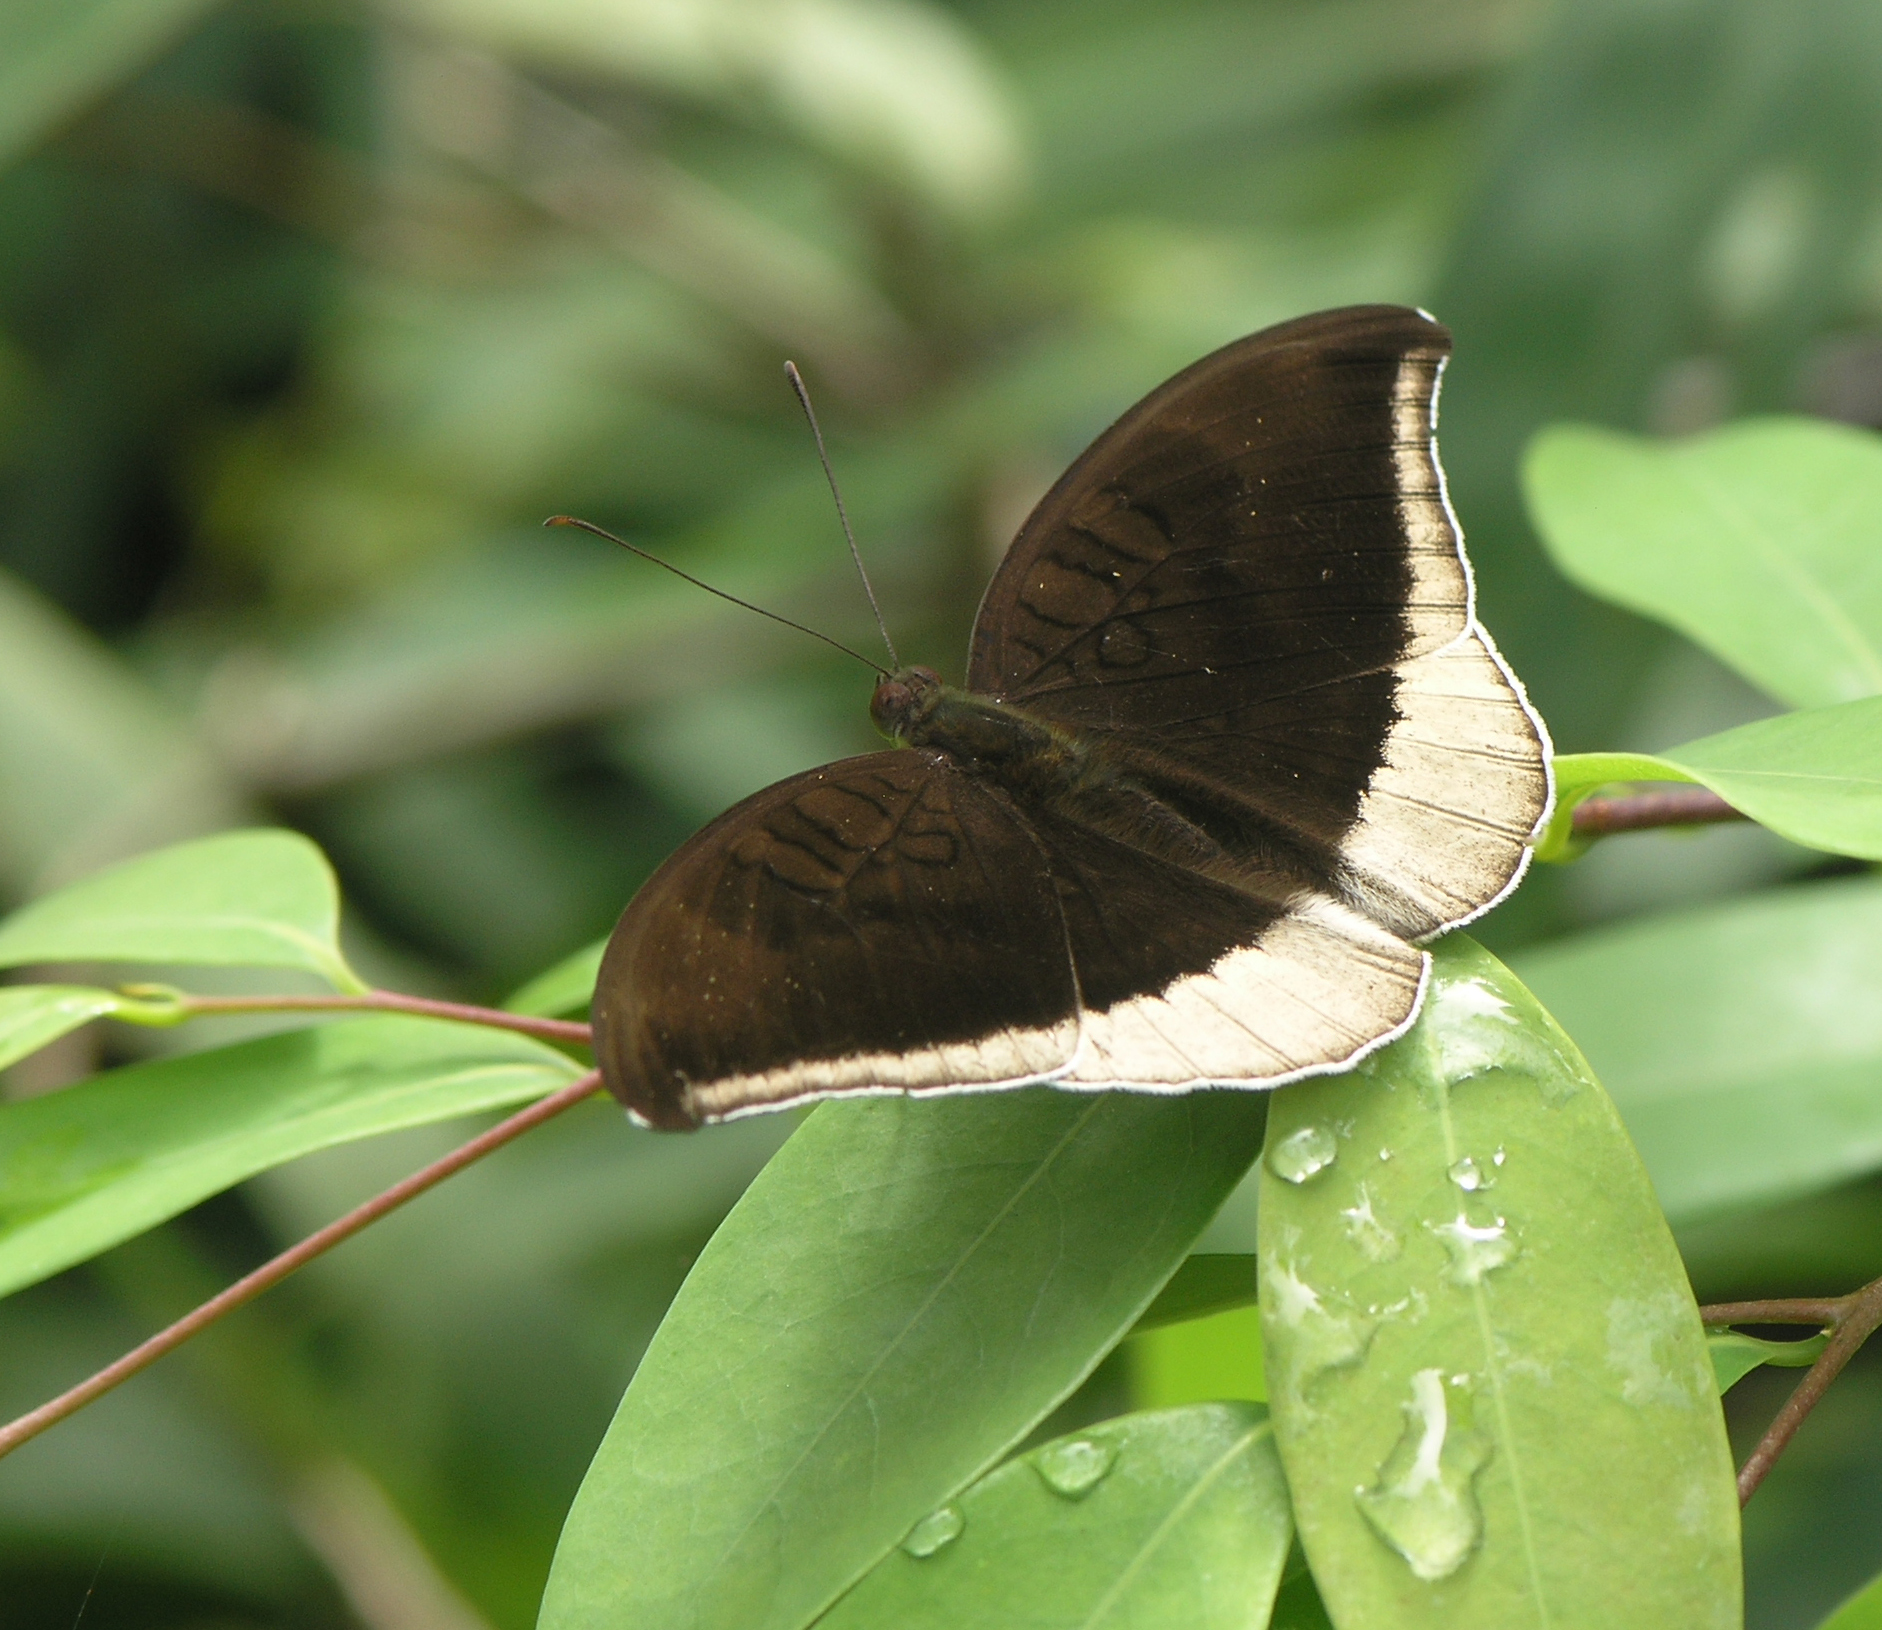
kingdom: Animalia
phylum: Arthropoda
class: Insecta
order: Lepidoptera
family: Nymphalidae
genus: Tanaecia
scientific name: Tanaecia lepidea
